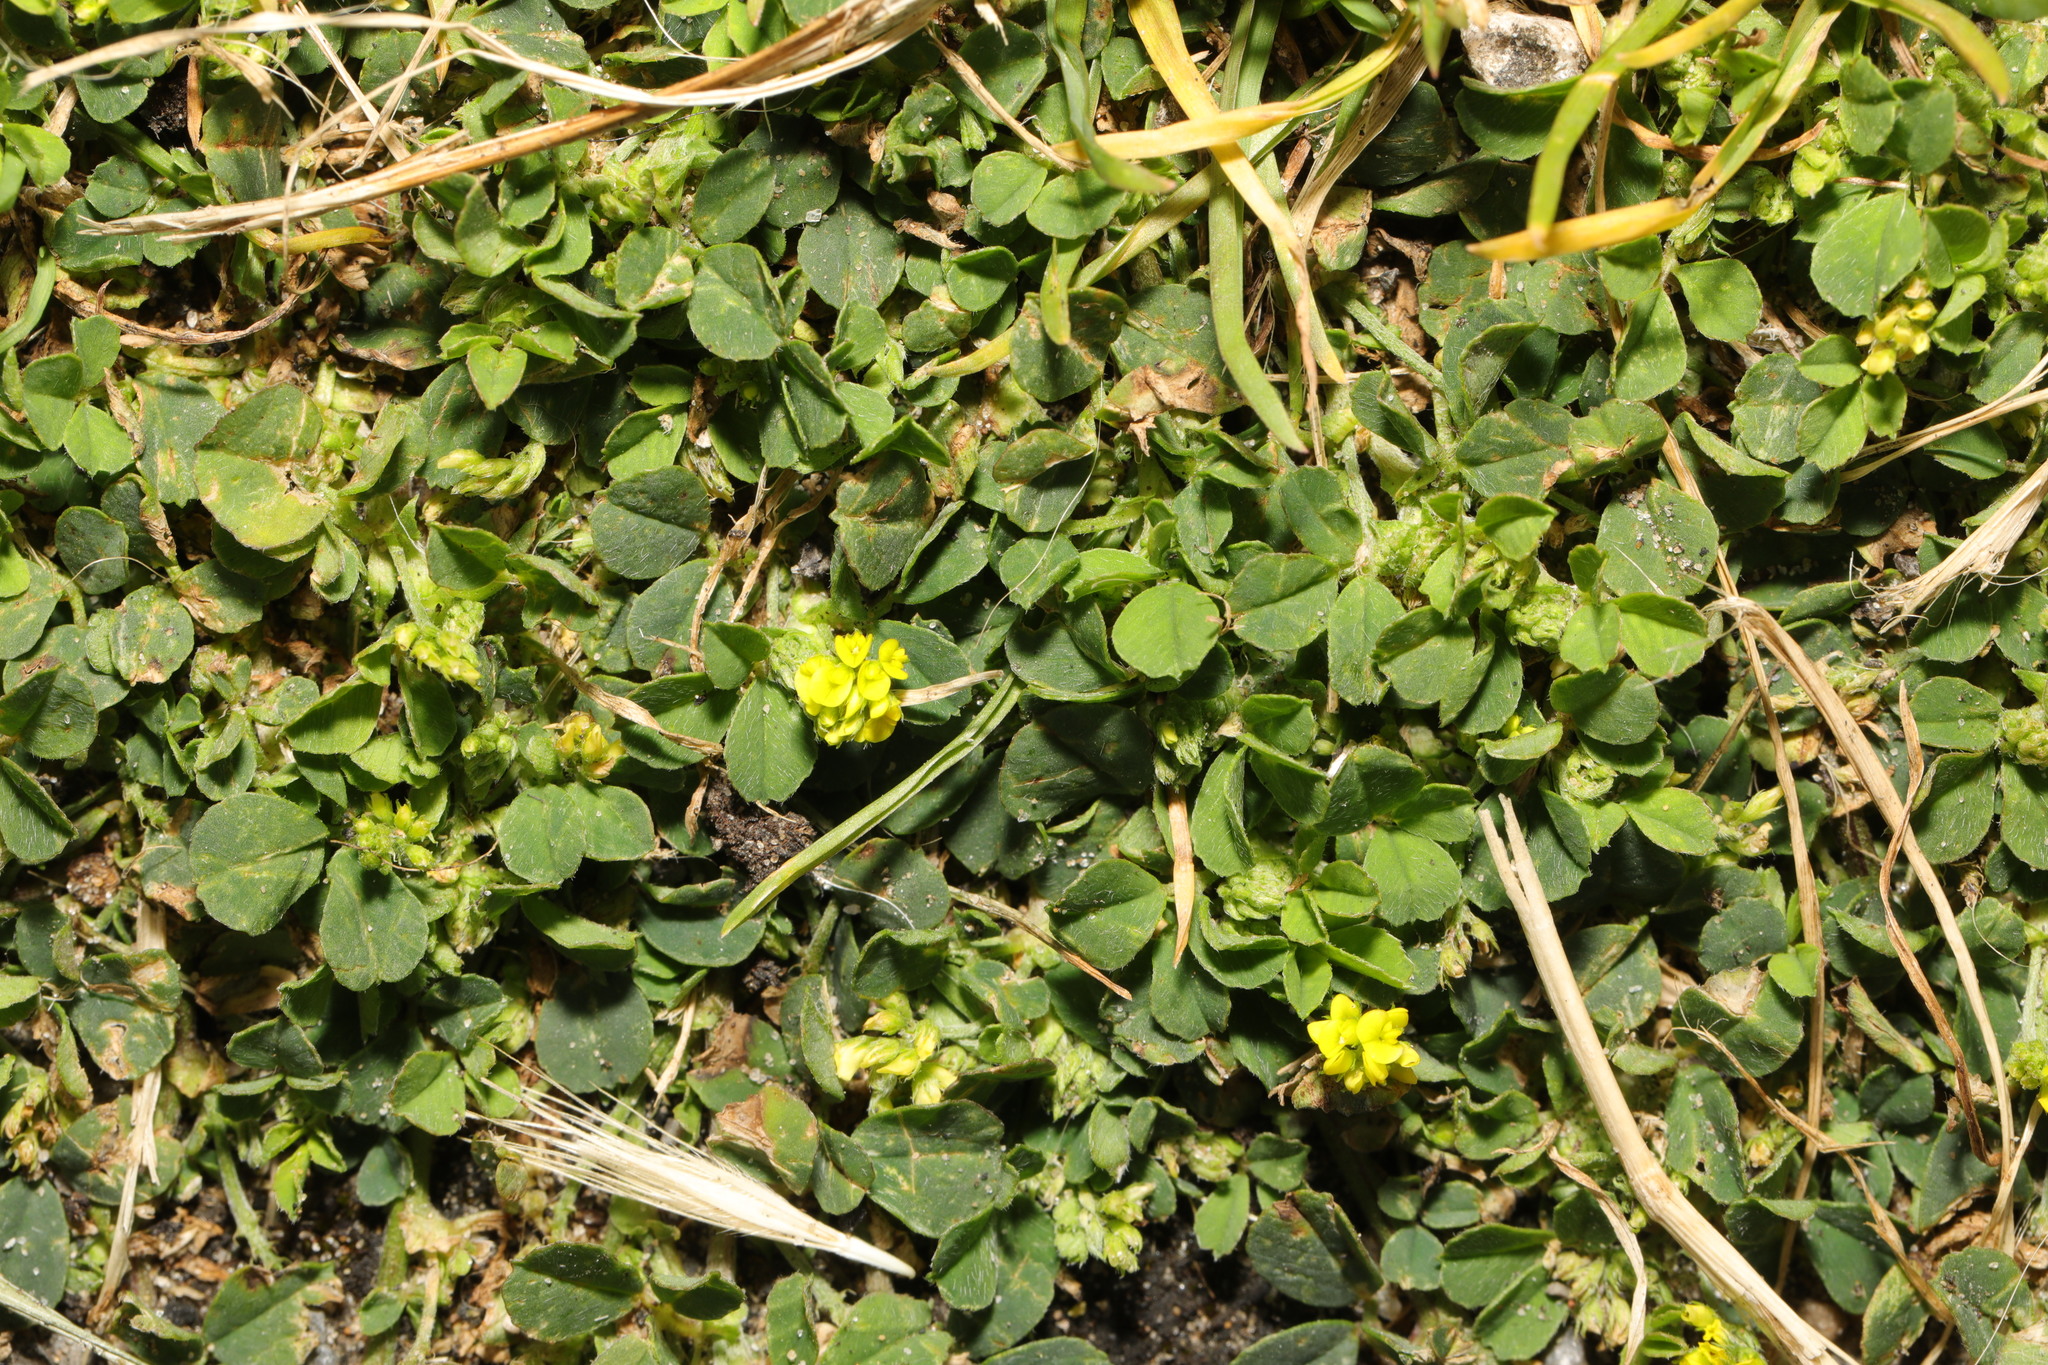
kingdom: Plantae
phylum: Tracheophyta
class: Magnoliopsida
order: Fabales
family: Fabaceae
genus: Medicago
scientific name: Medicago lupulina
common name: Black medick
